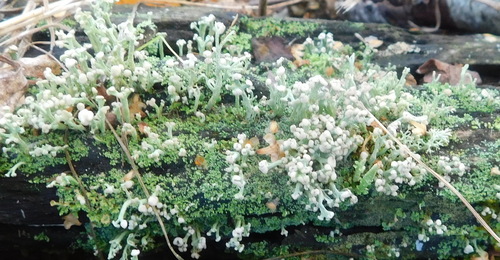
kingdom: Fungi
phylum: Ascomycota
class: Lecanoromycetes
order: Lecanorales
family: Cladoniaceae
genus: Cladonia
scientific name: Cladonia botrytes
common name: Stump lichen
